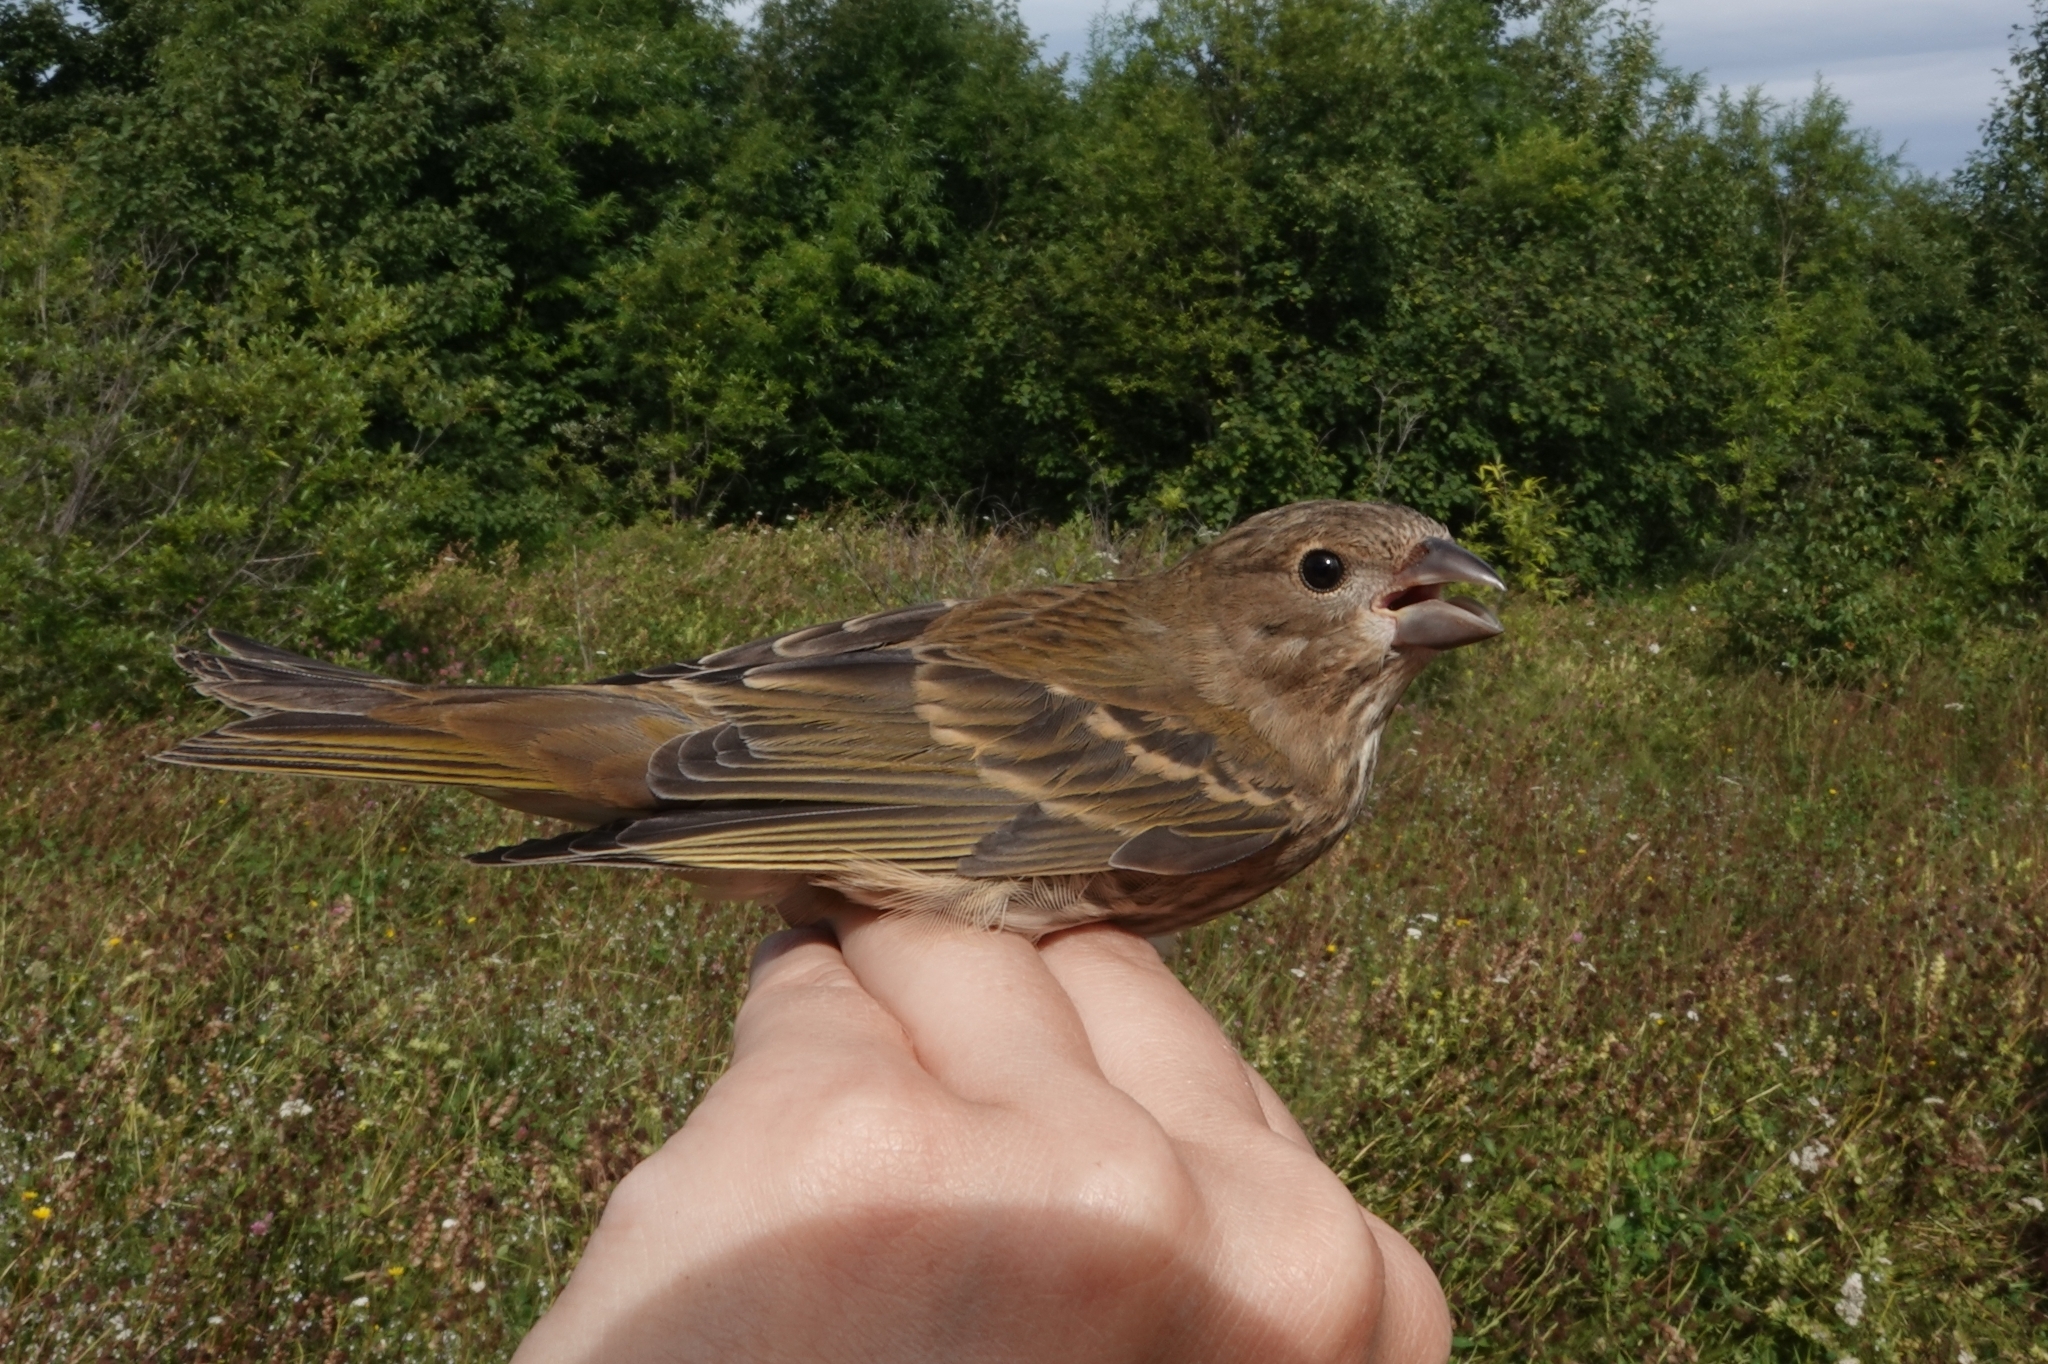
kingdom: Animalia
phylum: Chordata
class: Aves
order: Passeriformes
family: Fringillidae
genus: Carpodacus
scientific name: Carpodacus erythrinus
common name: Common rosefinch
